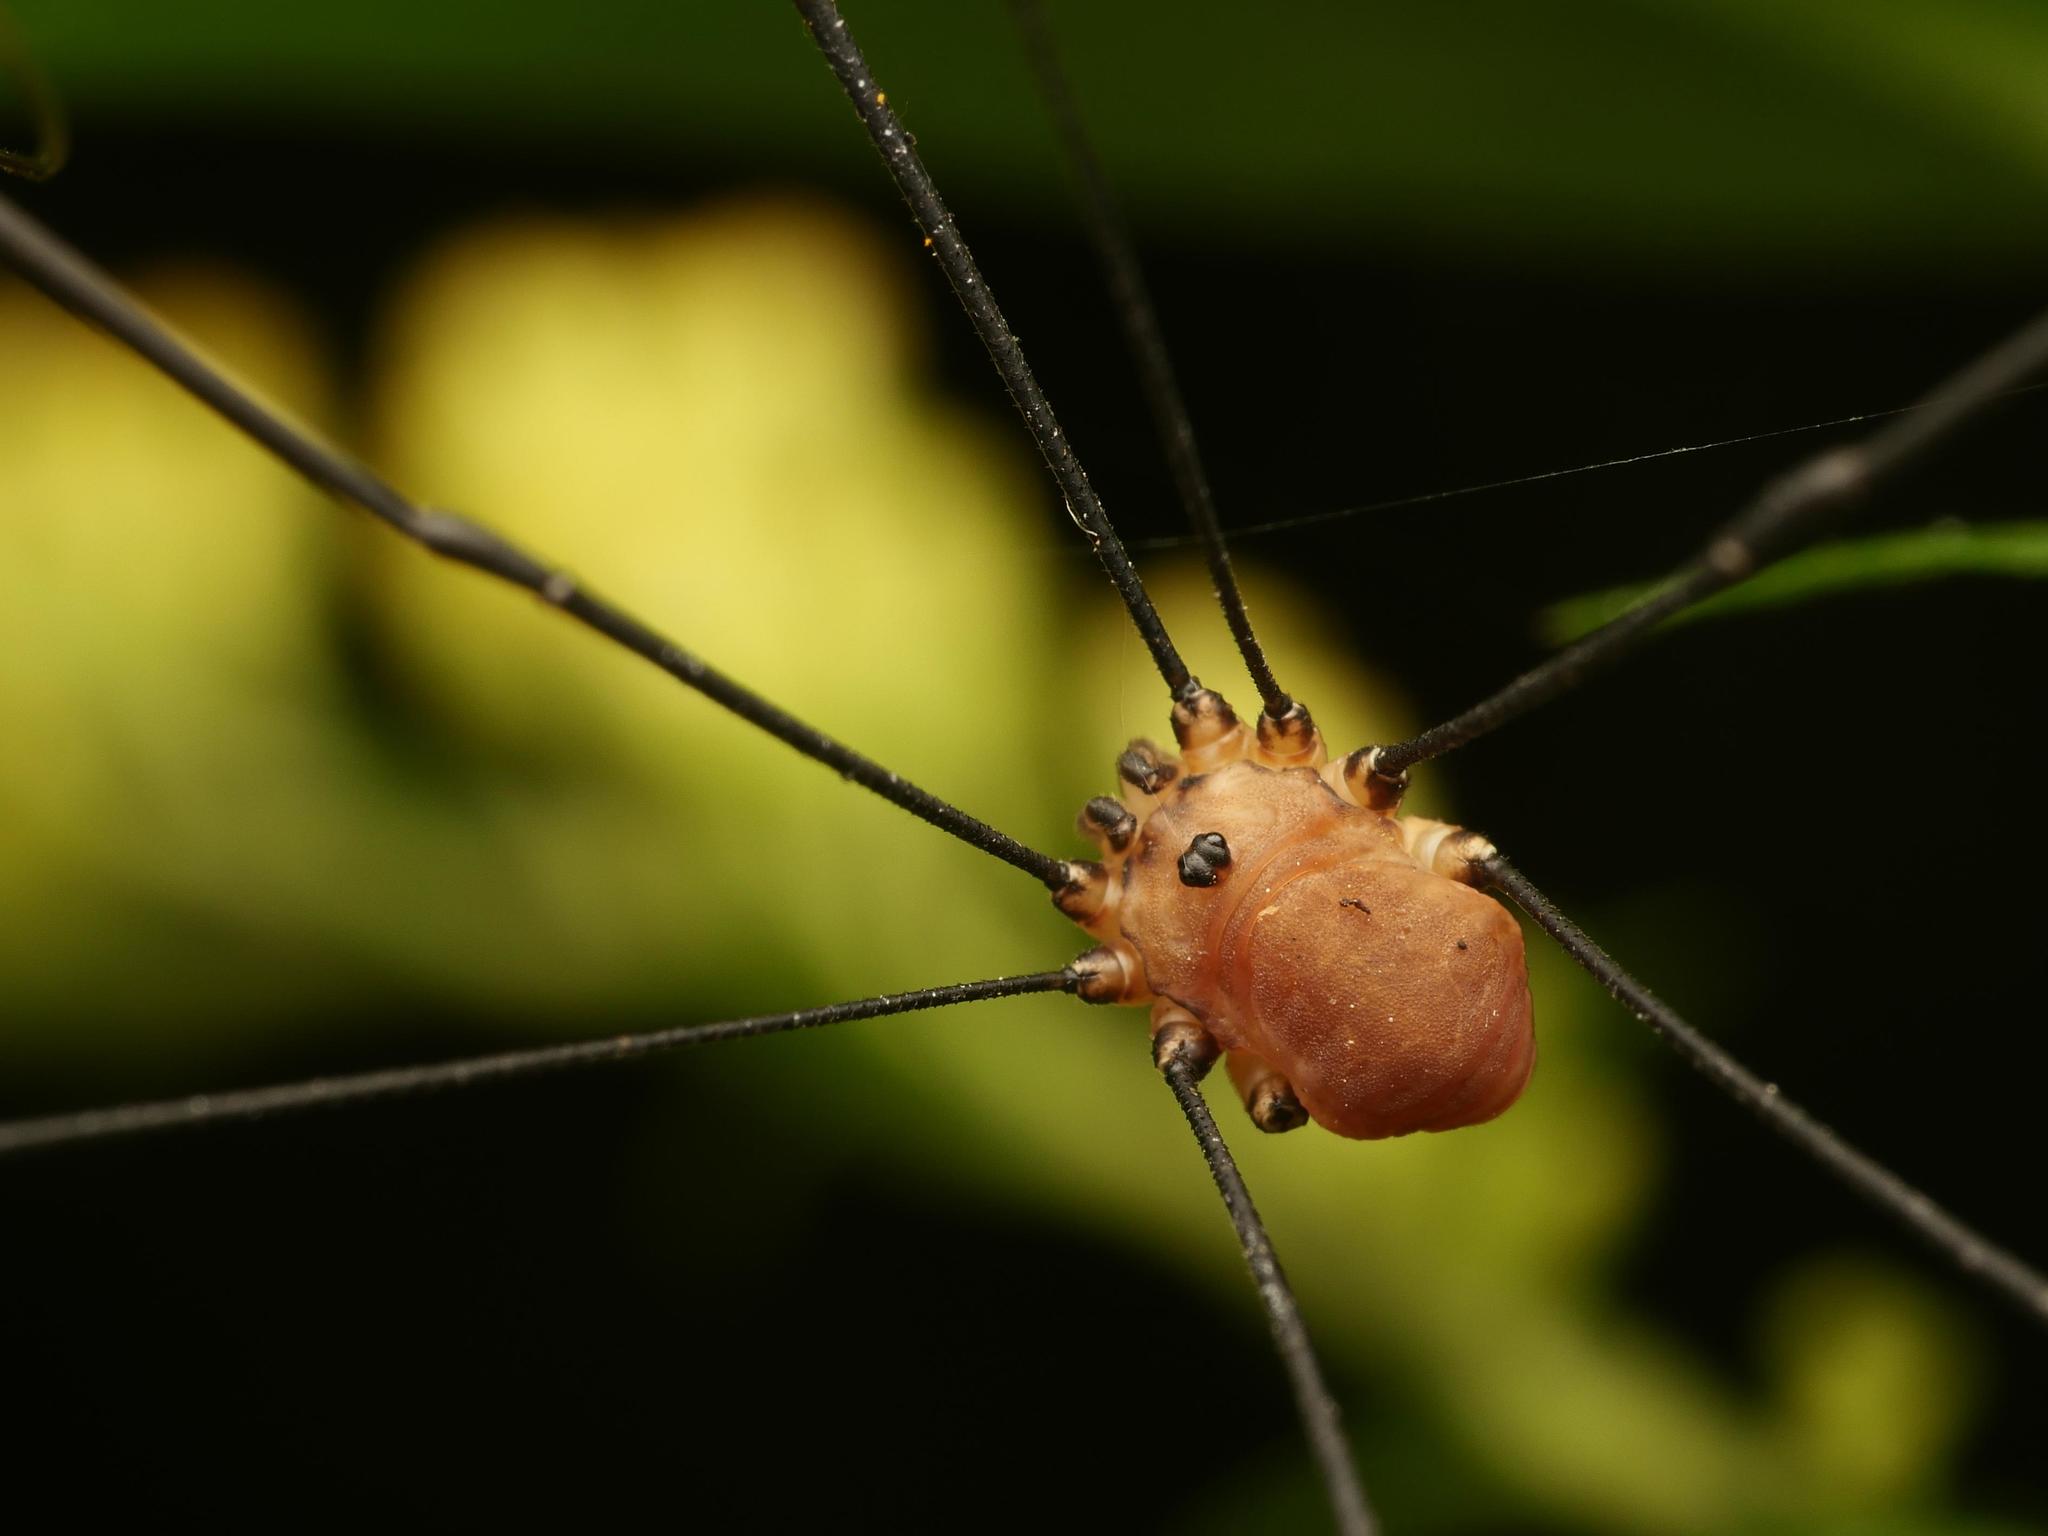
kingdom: Animalia
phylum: Arthropoda
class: Arachnida
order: Opiliones
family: Sclerosomatidae
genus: Leiobunum
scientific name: Leiobunum rotundum
